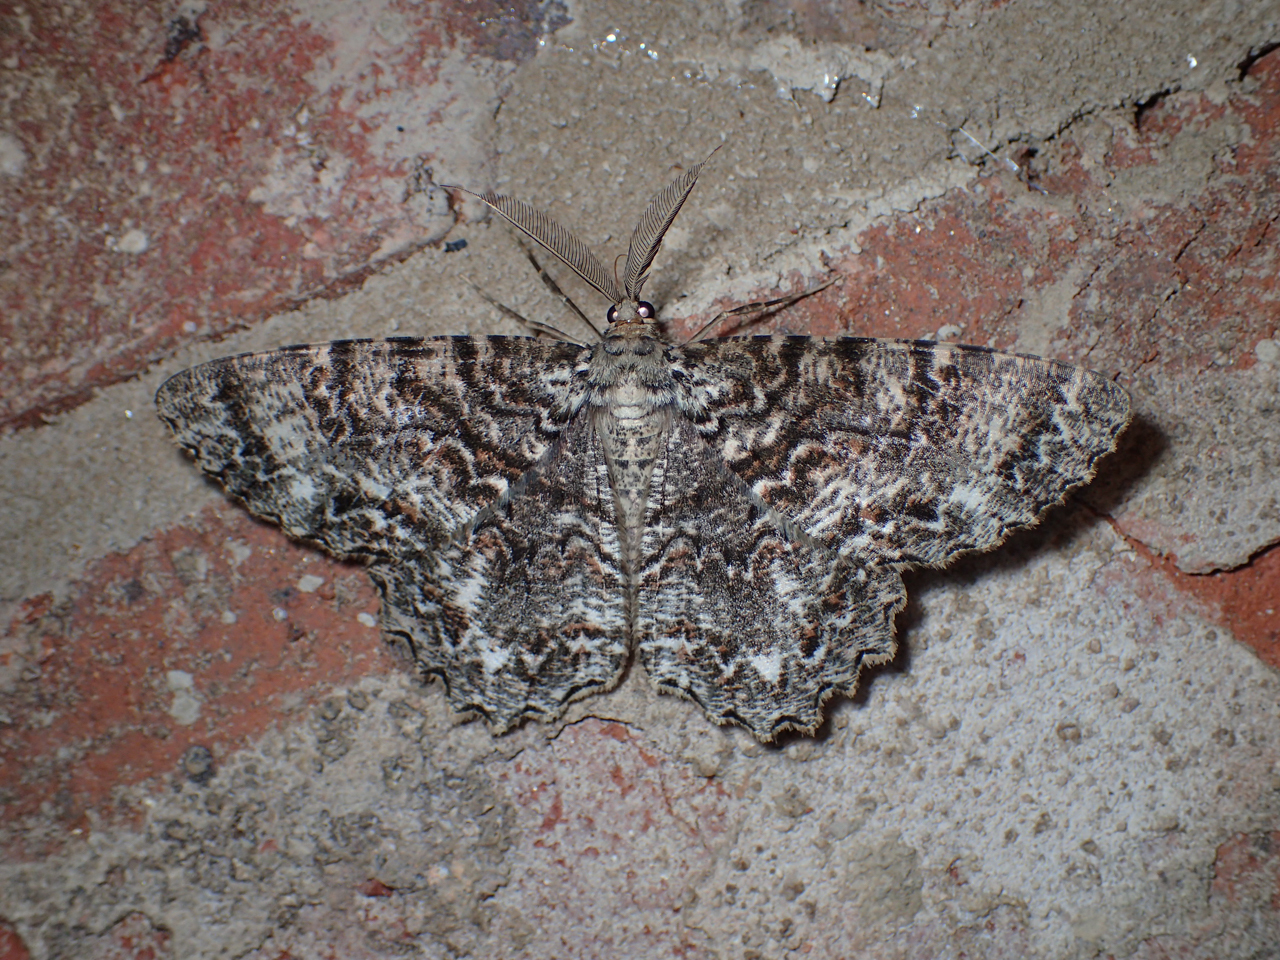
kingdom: Animalia
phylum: Arthropoda
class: Insecta
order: Lepidoptera
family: Geometridae
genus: Epimecis
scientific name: Epimecis hortaria
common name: Tulip-tree beauty
